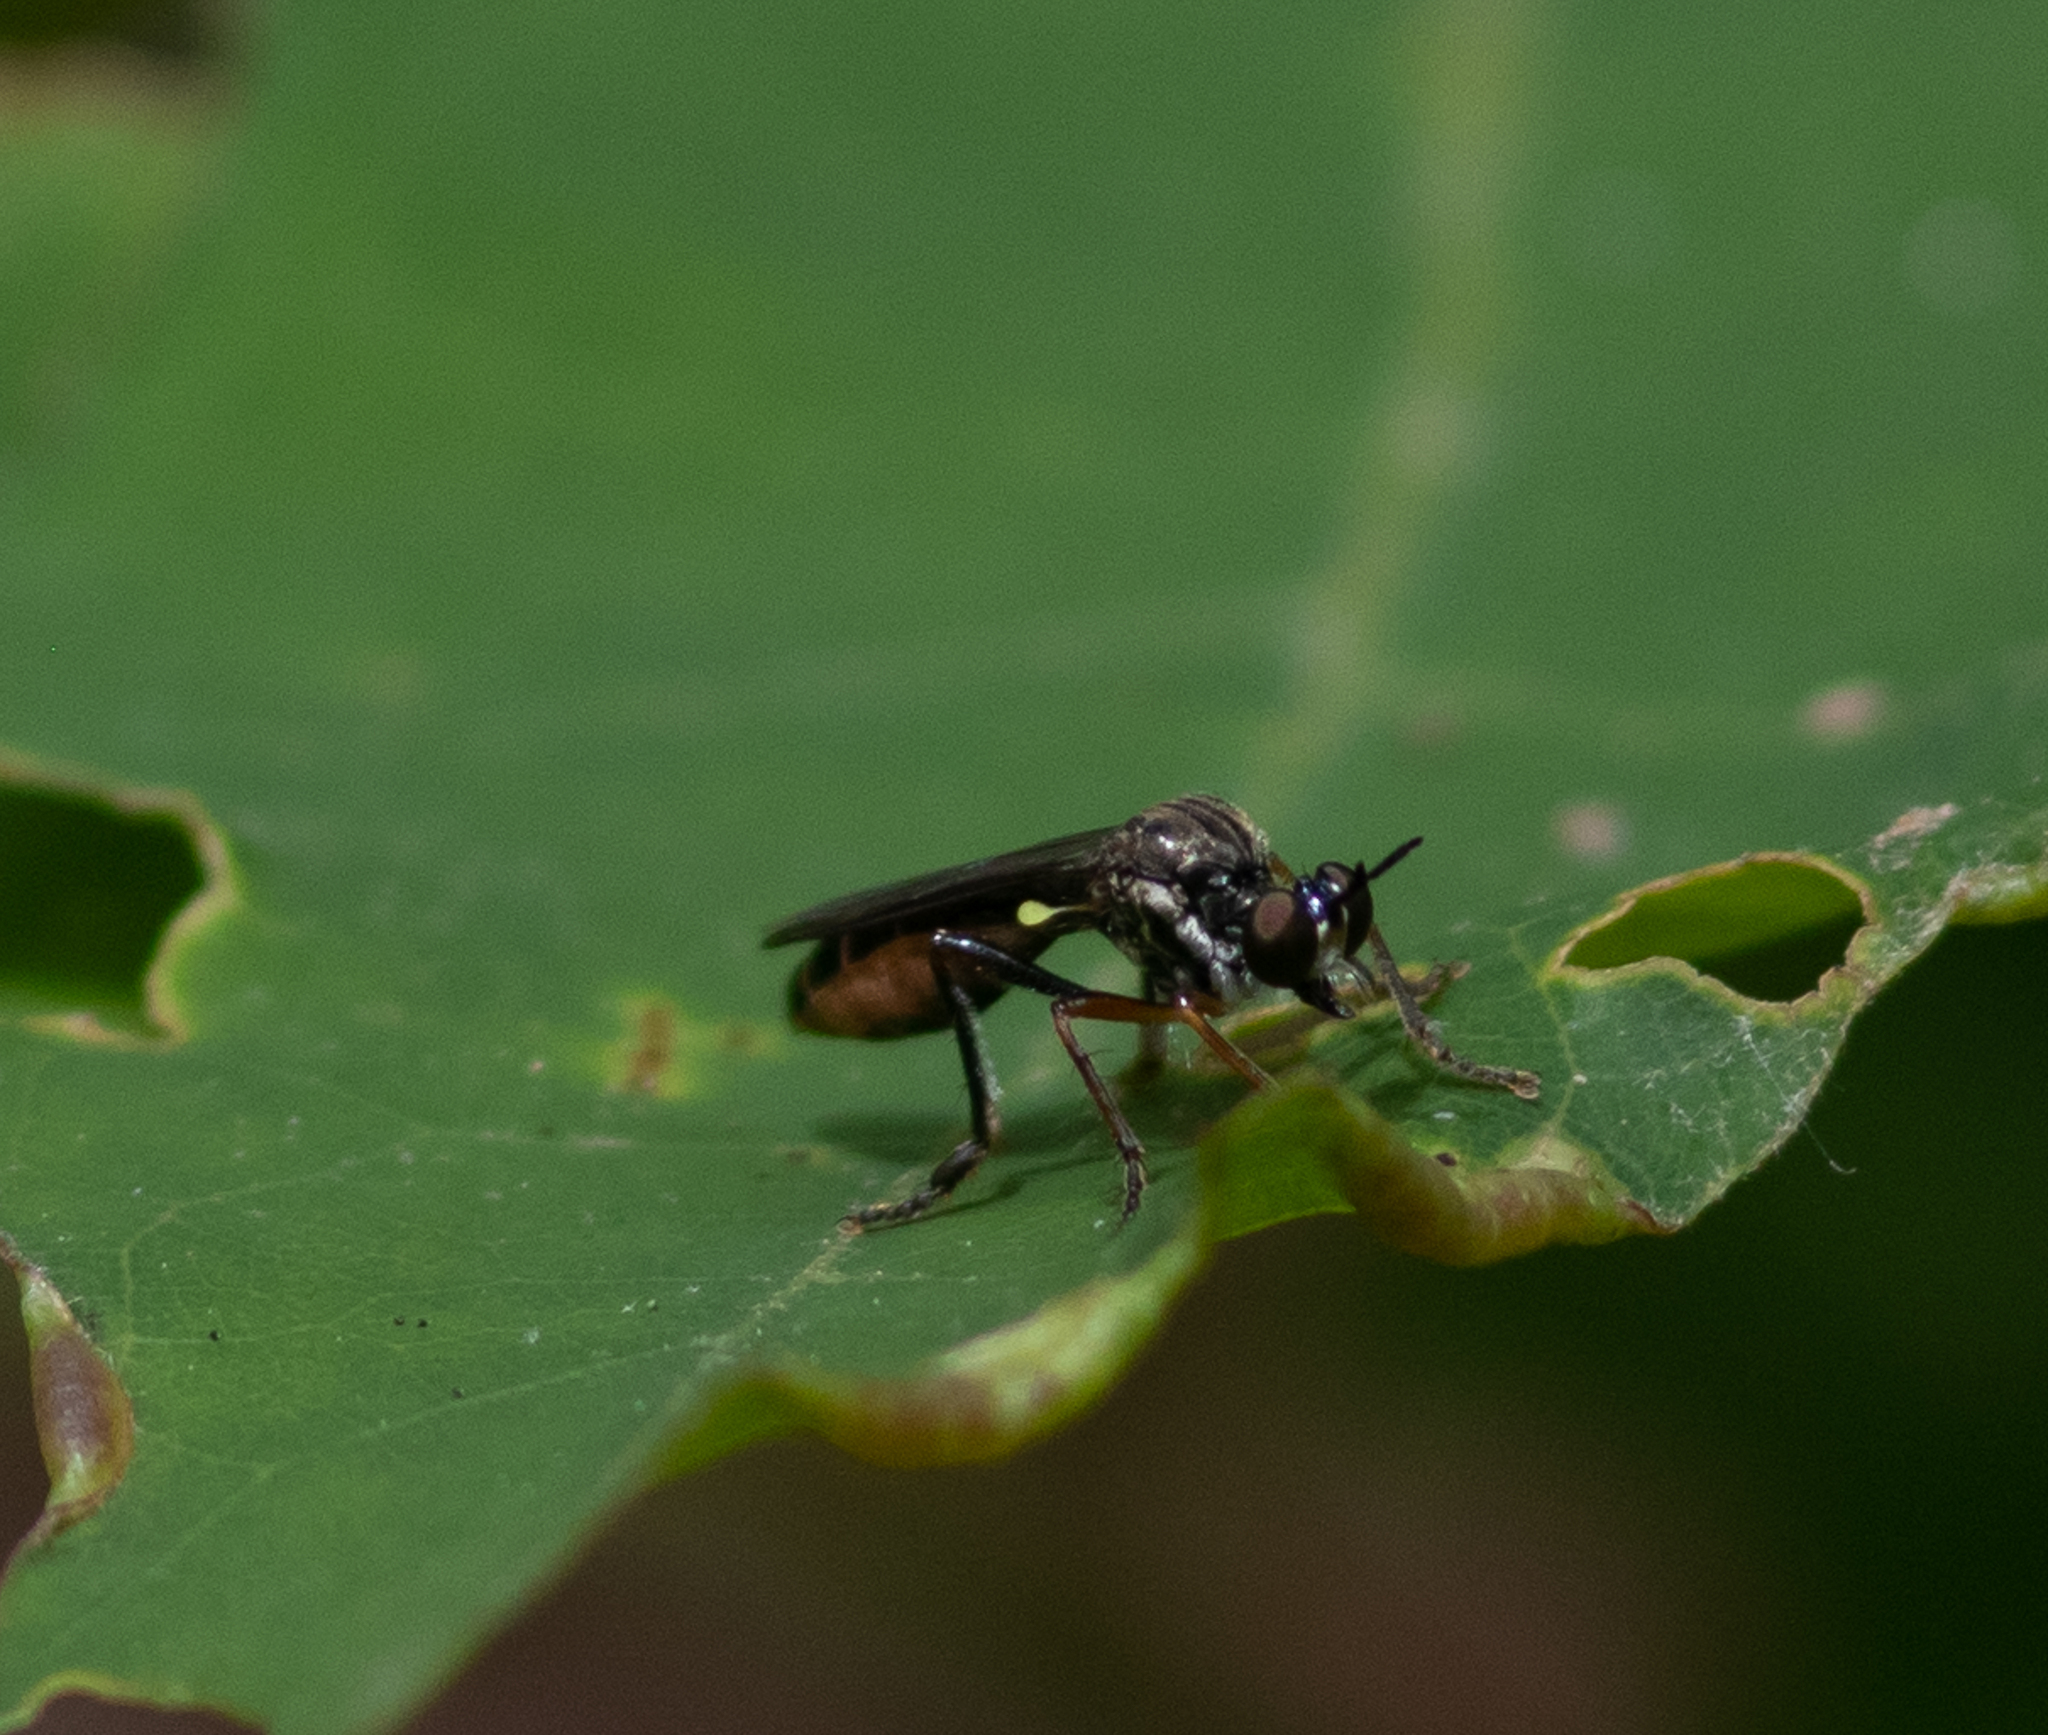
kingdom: Animalia
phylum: Arthropoda
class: Insecta
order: Diptera
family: Asilidae
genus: Dioctria
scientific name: Dioctria hyalipennis
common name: Stripe-legged robberfly
